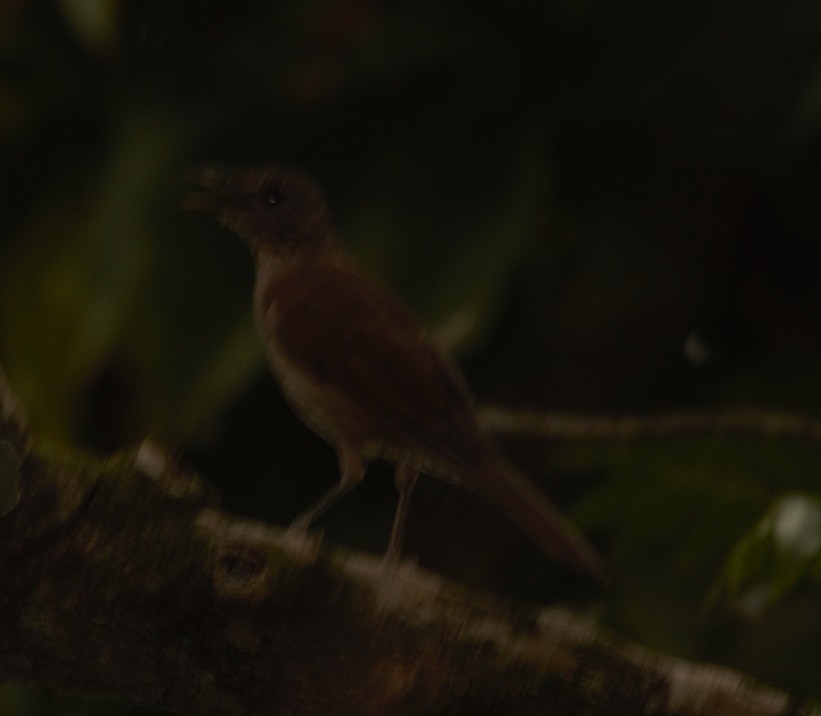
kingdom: Animalia
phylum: Chordata
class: Aves
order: Passeriformes
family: Turdidae
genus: Turdus
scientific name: Turdus leucomelas
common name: Pale-breasted thrush
